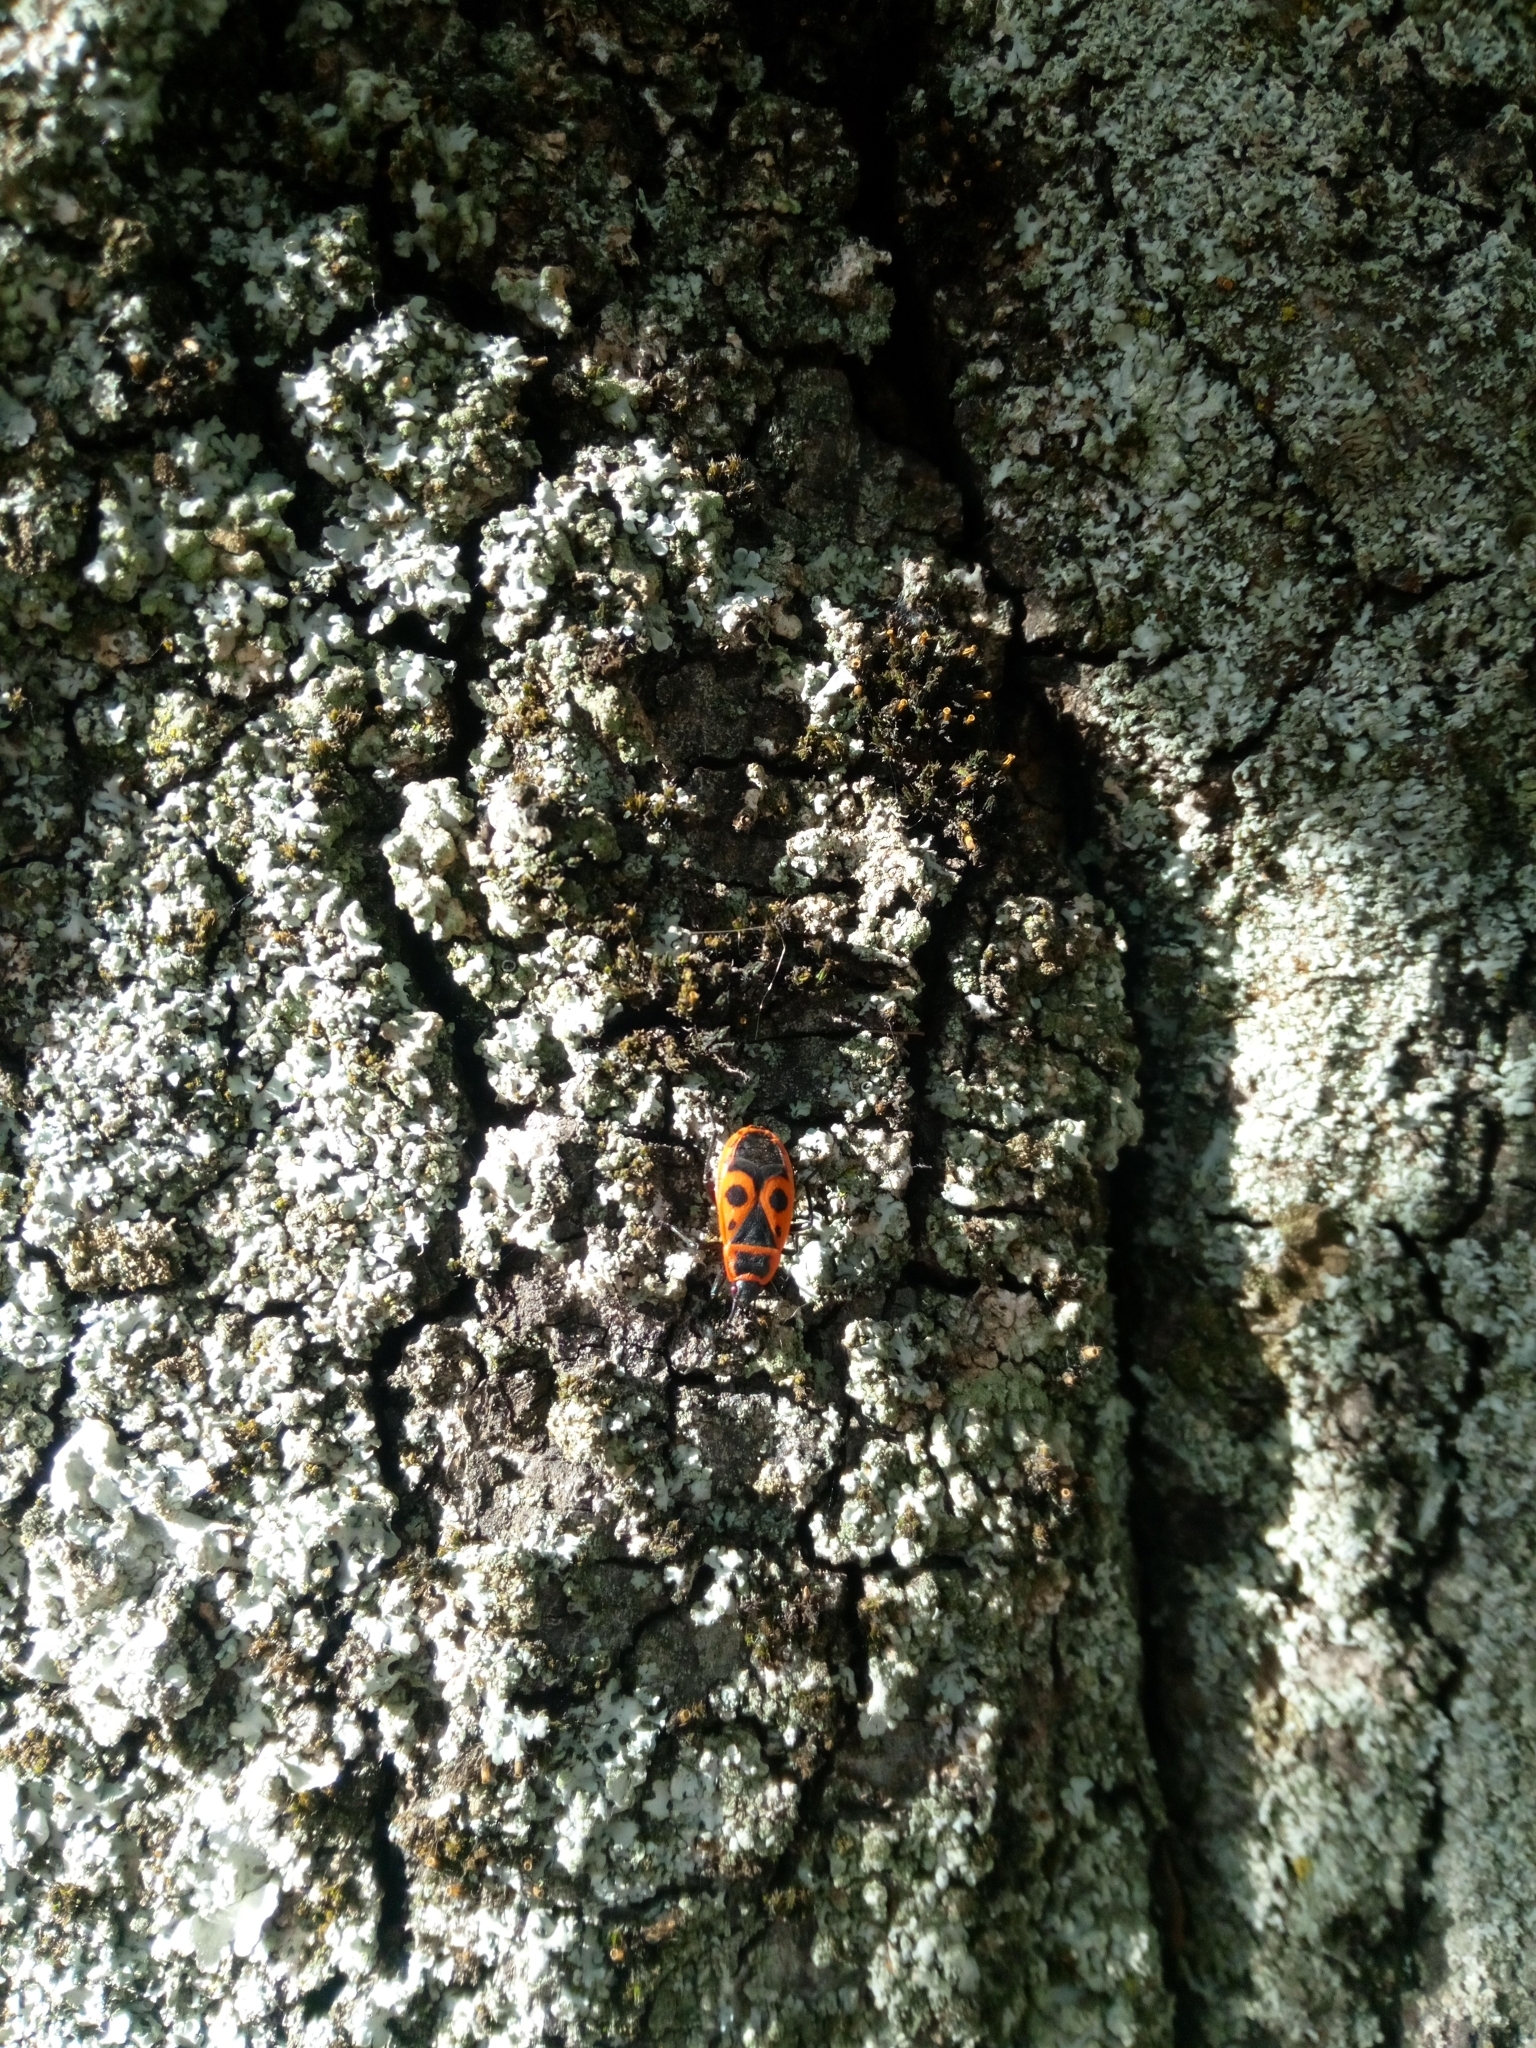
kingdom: Animalia
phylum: Arthropoda
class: Insecta
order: Hemiptera
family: Pyrrhocoridae
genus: Pyrrhocoris
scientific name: Pyrrhocoris apterus
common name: Firebug
